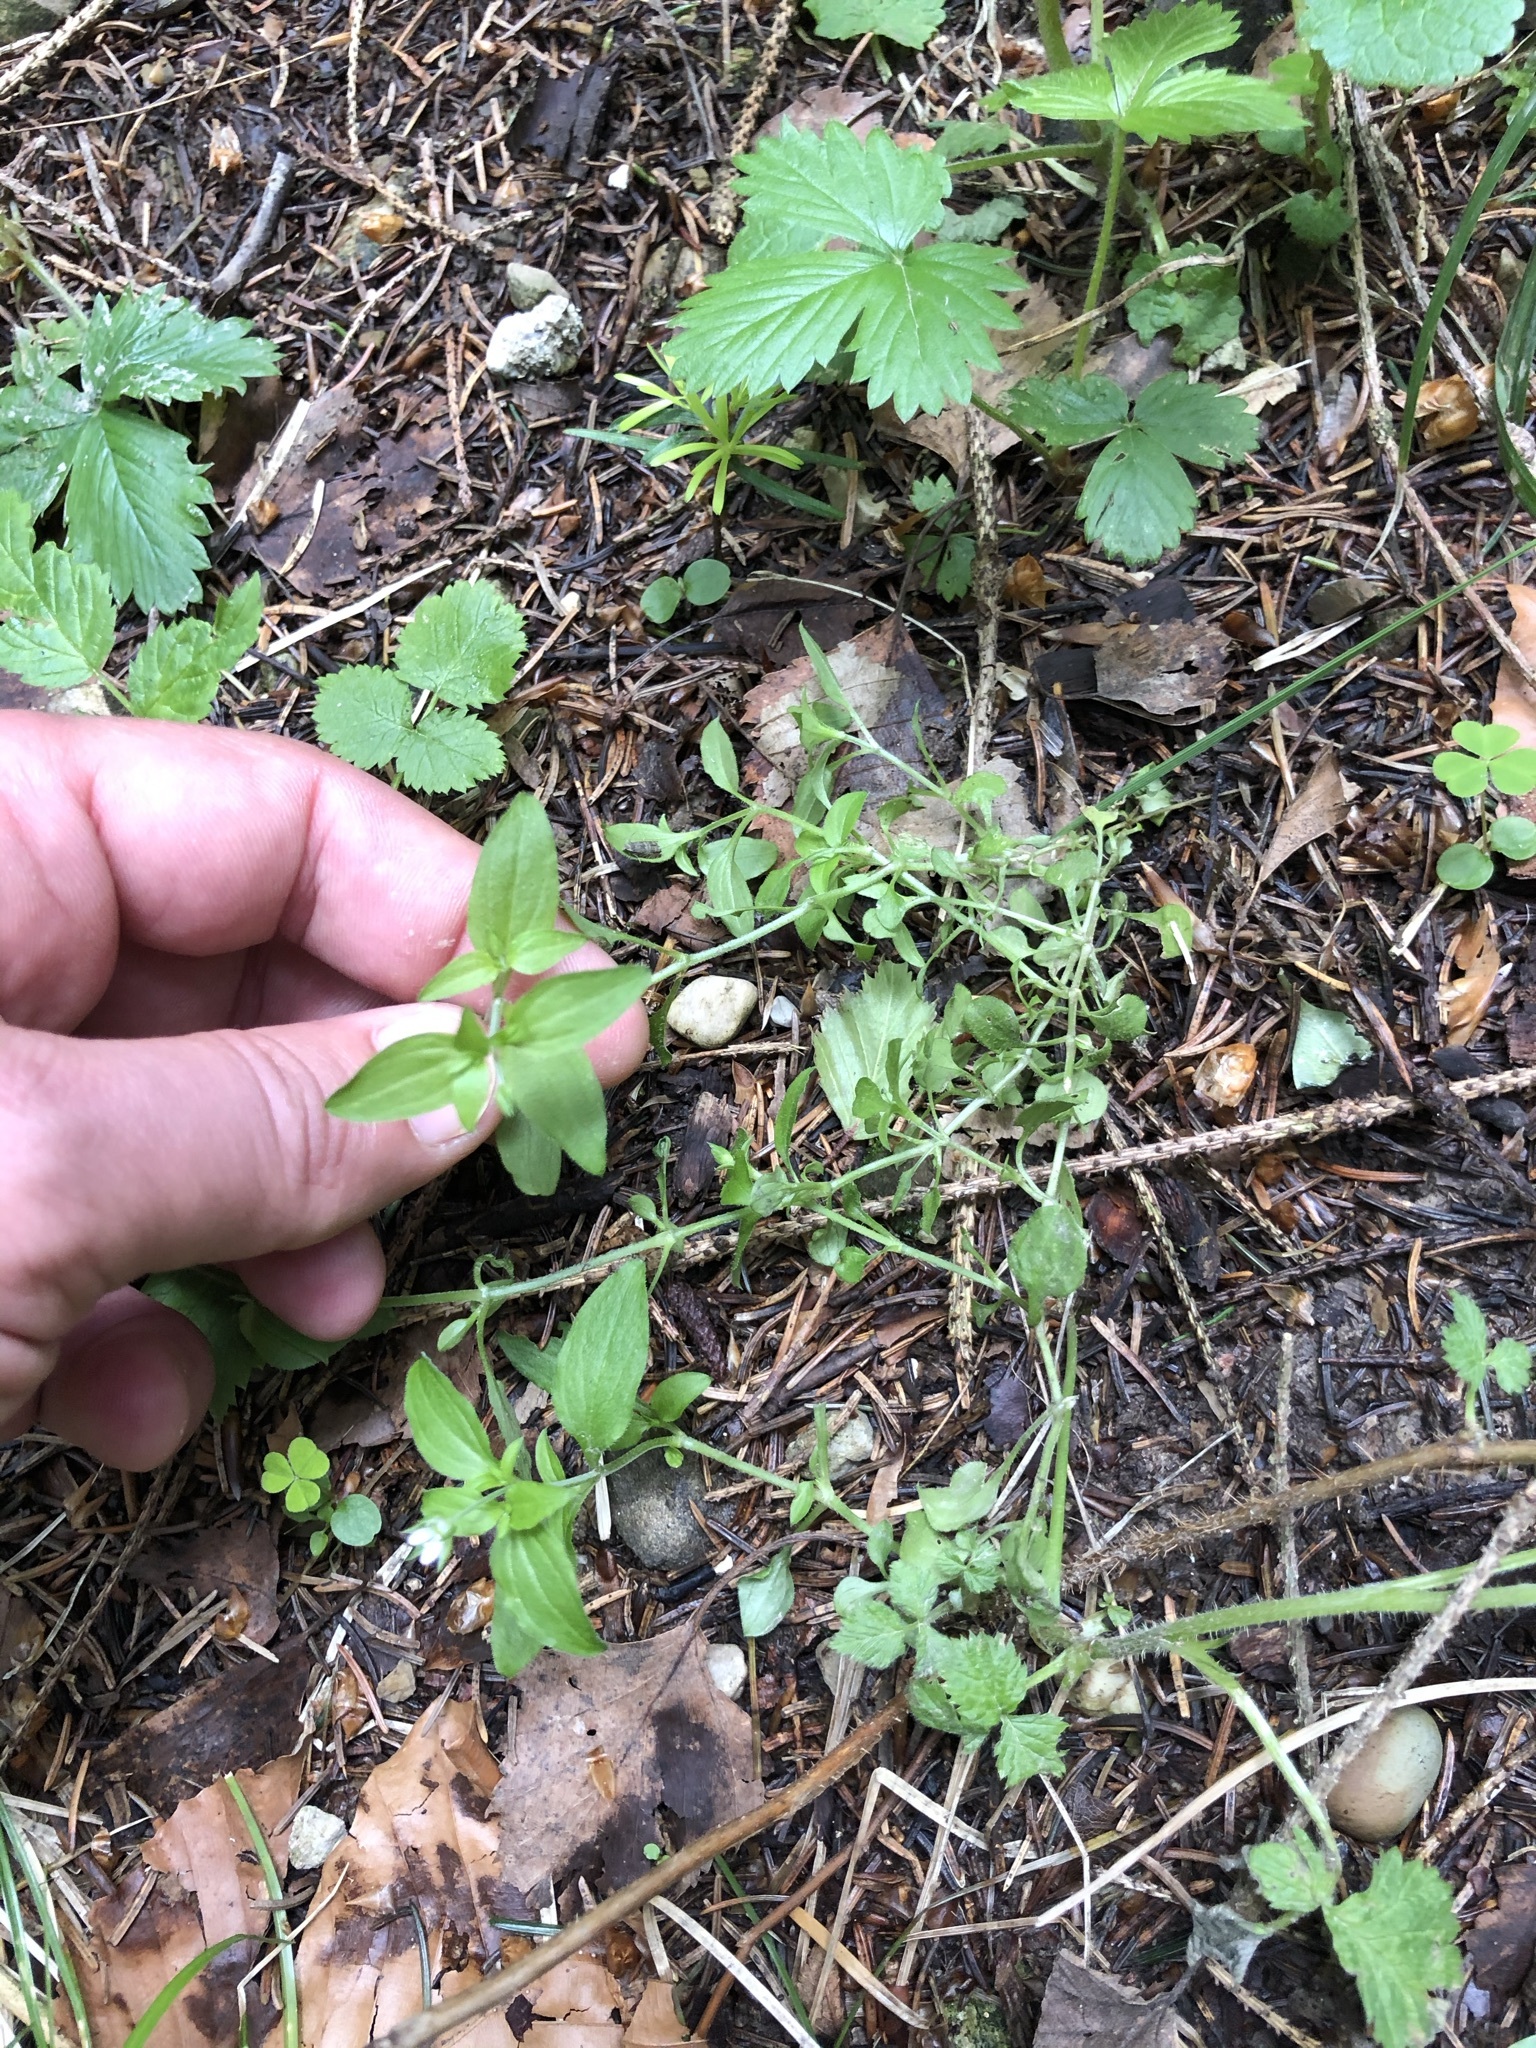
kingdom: Plantae
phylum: Tracheophyta
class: Magnoliopsida
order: Caryophyllales
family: Caryophyllaceae
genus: Moehringia
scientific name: Moehringia trinervia
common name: Three-nerved sandwort
